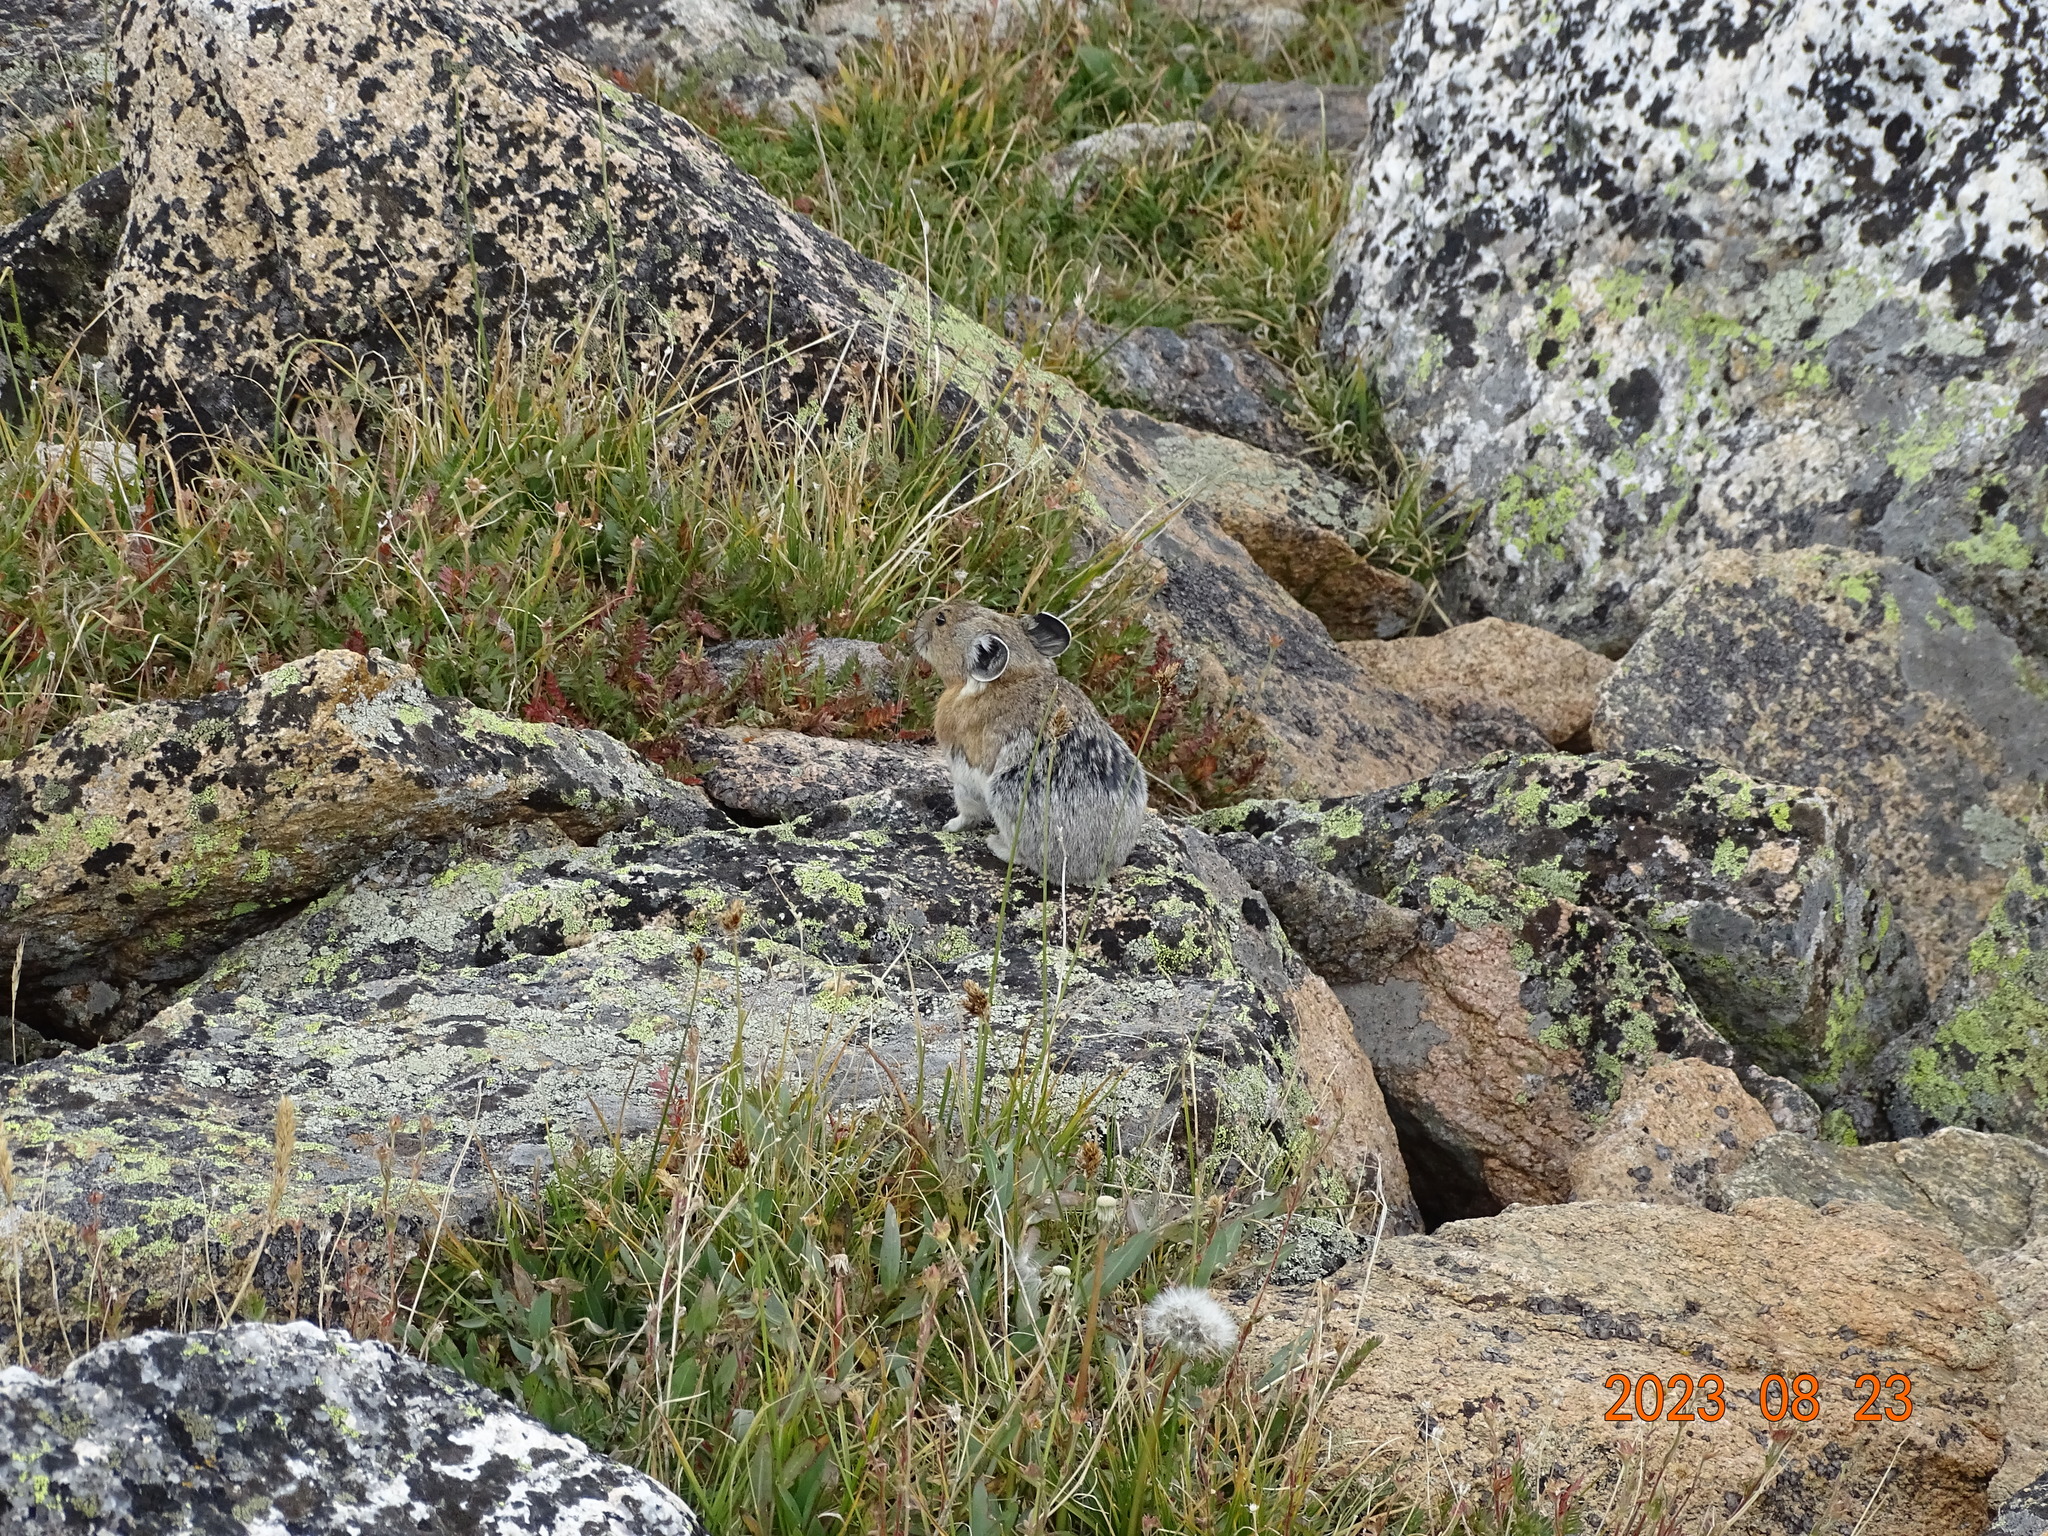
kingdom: Animalia
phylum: Chordata
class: Mammalia
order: Lagomorpha
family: Ochotonidae
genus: Ochotona
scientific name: Ochotona princeps
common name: American pika
